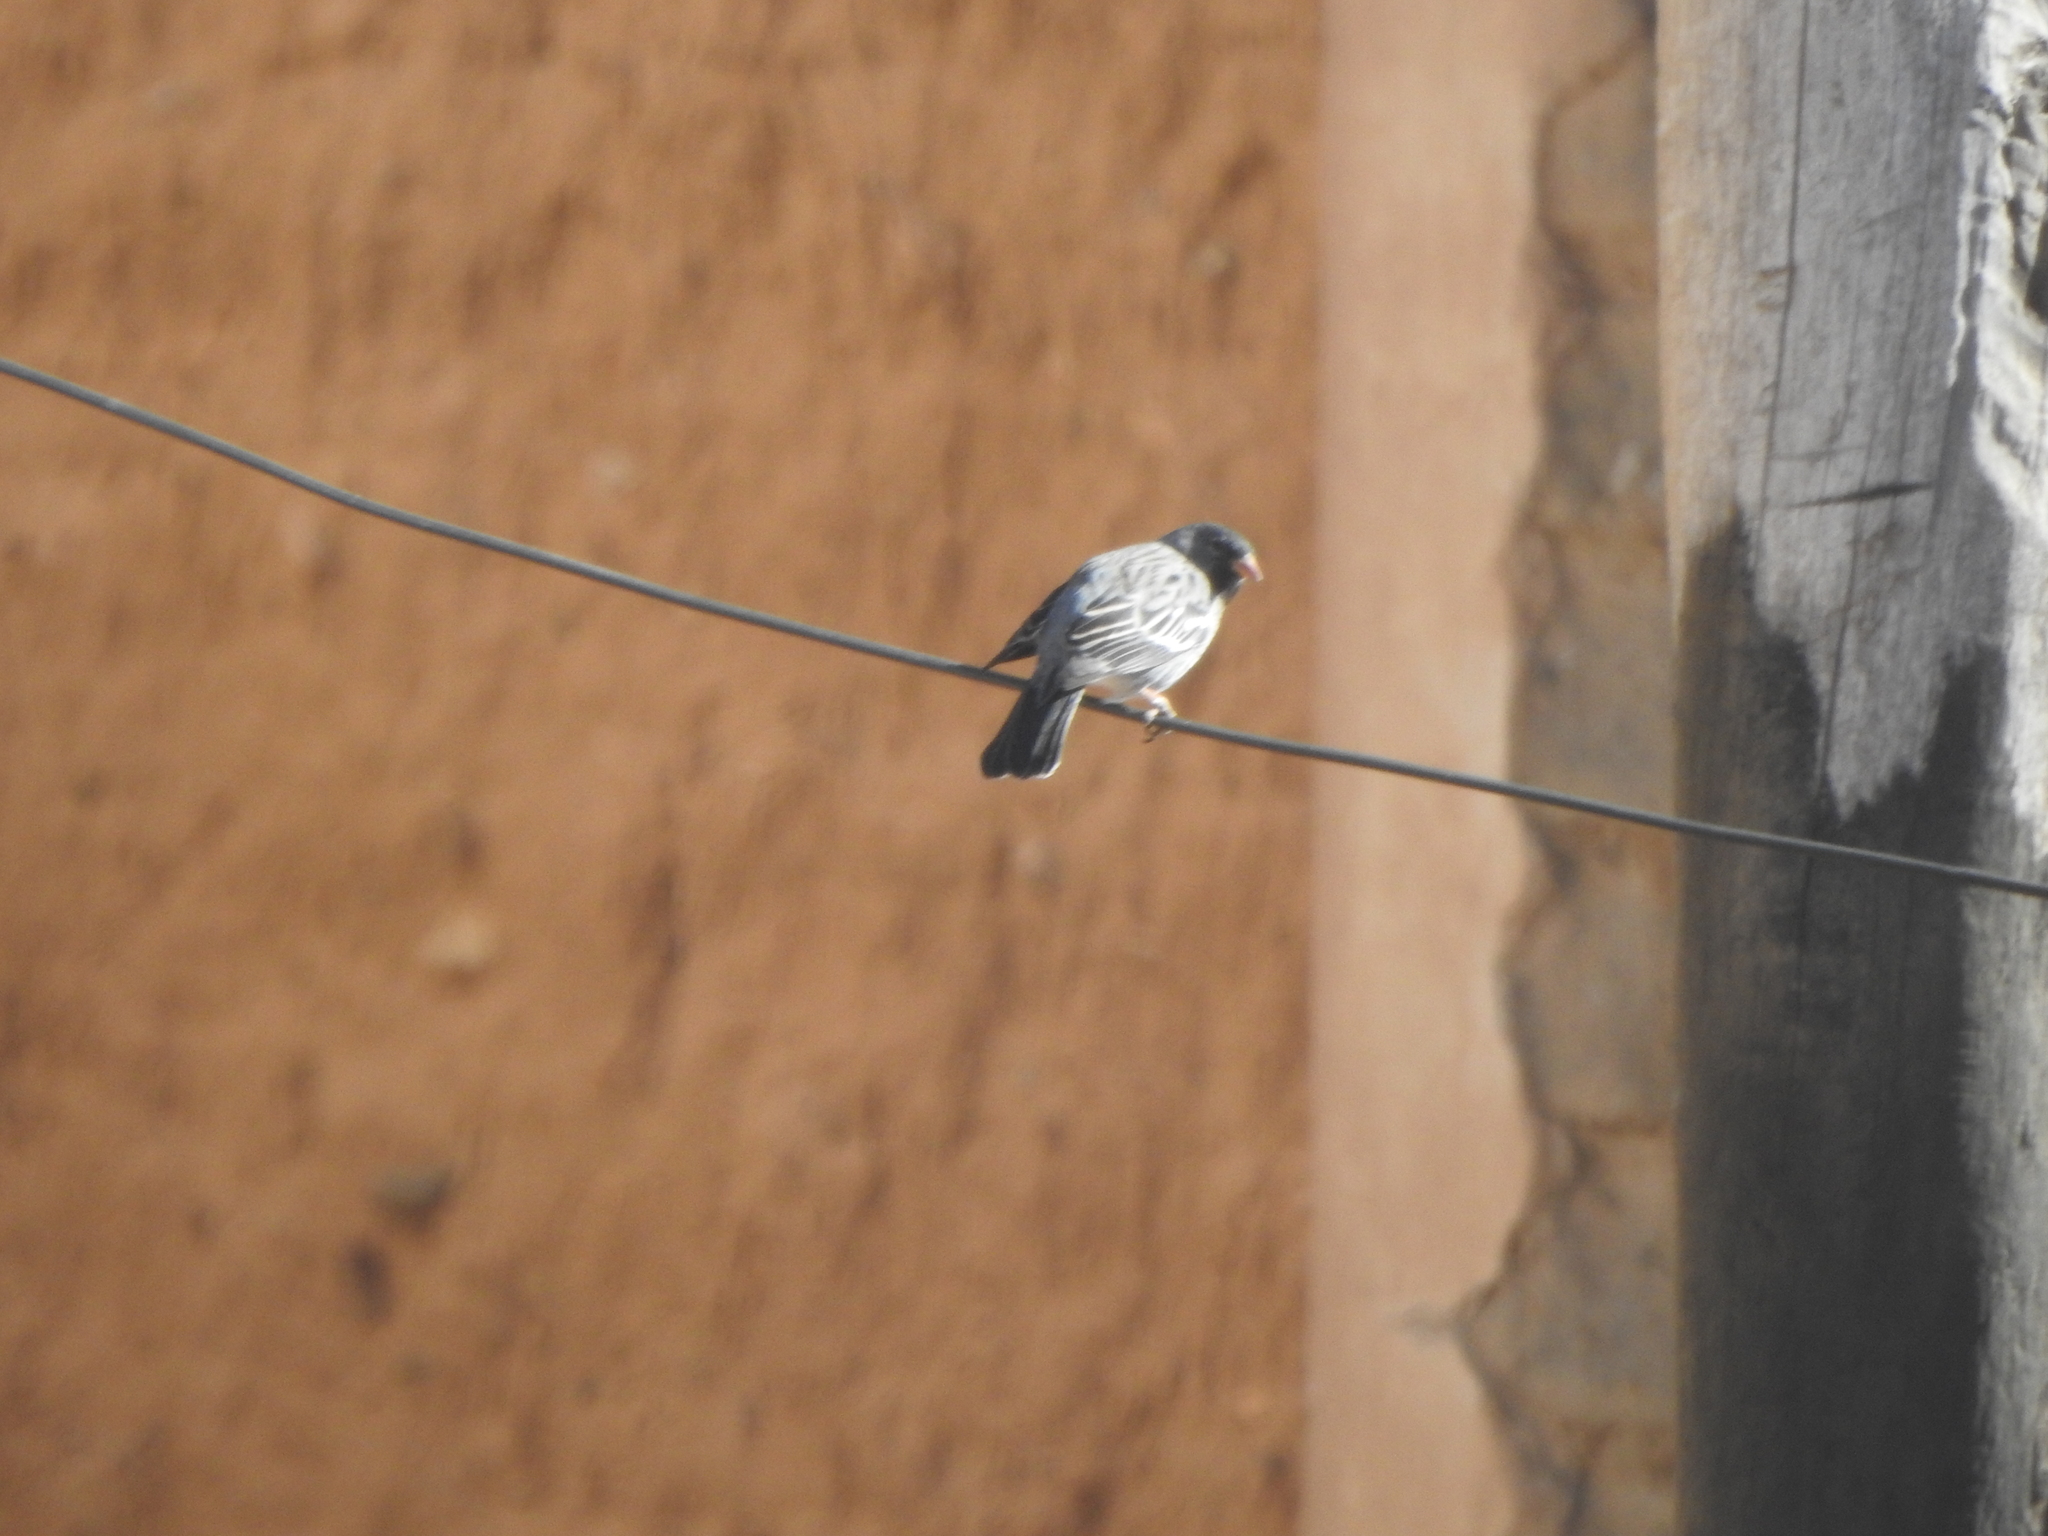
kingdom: Animalia
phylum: Chordata
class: Aves
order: Passeriformes
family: Thraupidae
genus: Rhopospina
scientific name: Rhopospina fruticeti
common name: Mourning sierra finch
